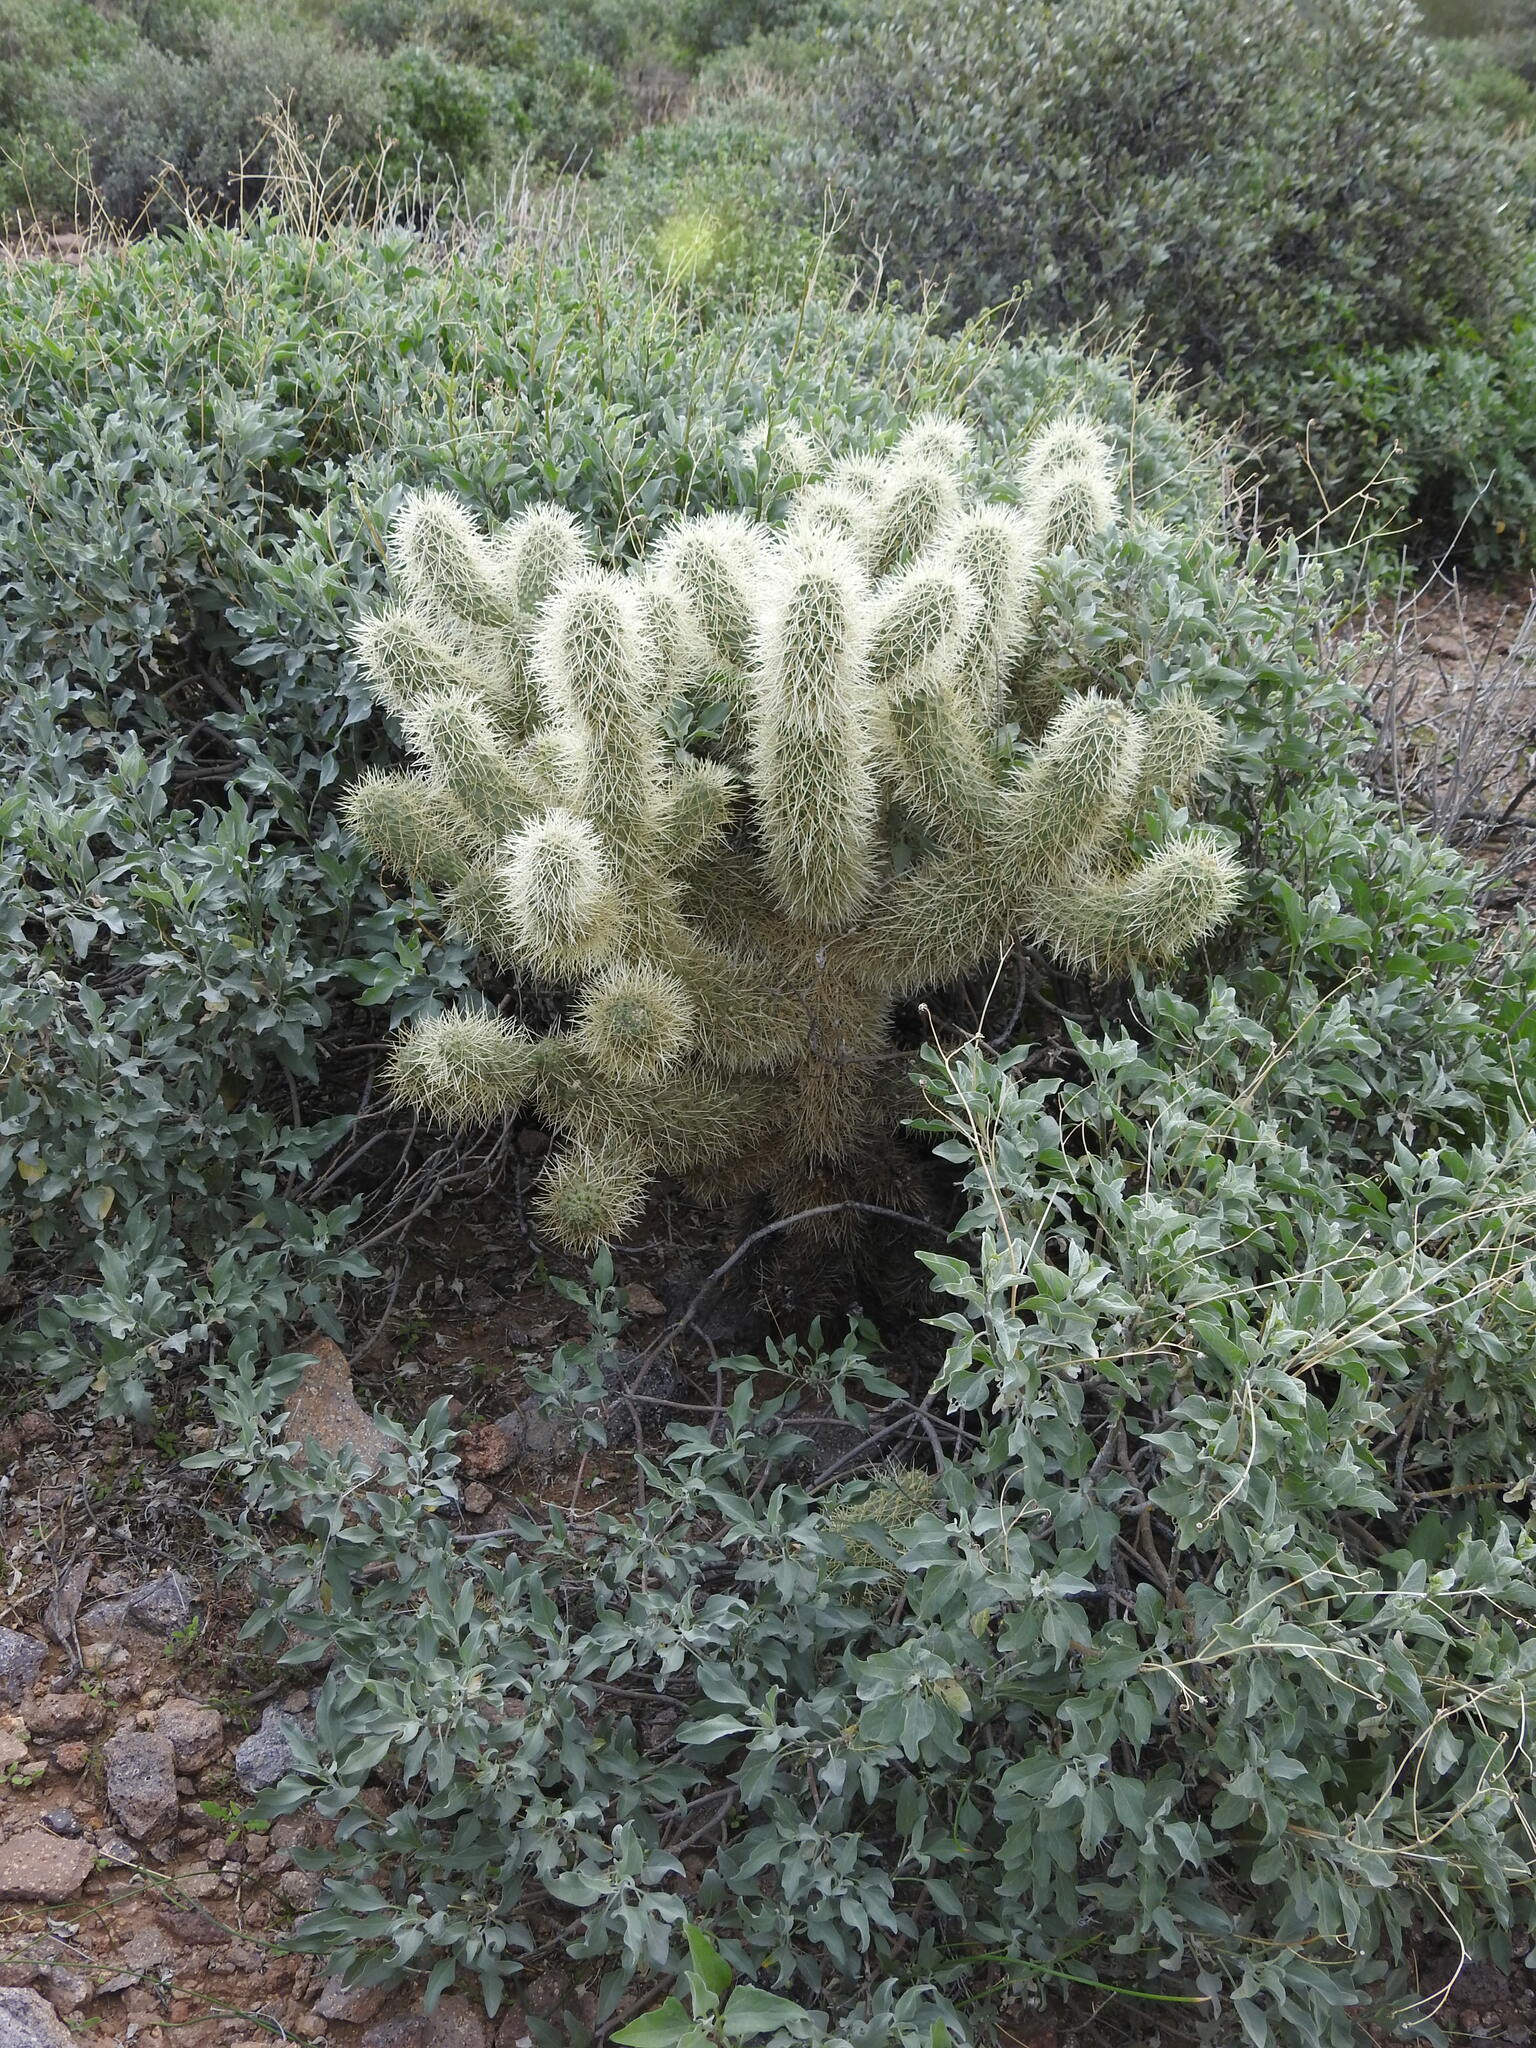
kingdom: Plantae
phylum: Tracheophyta
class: Magnoliopsida
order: Caryophyllales
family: Cactaceae
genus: Cylindropuntia
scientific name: Cylindropuntia fosbergii
